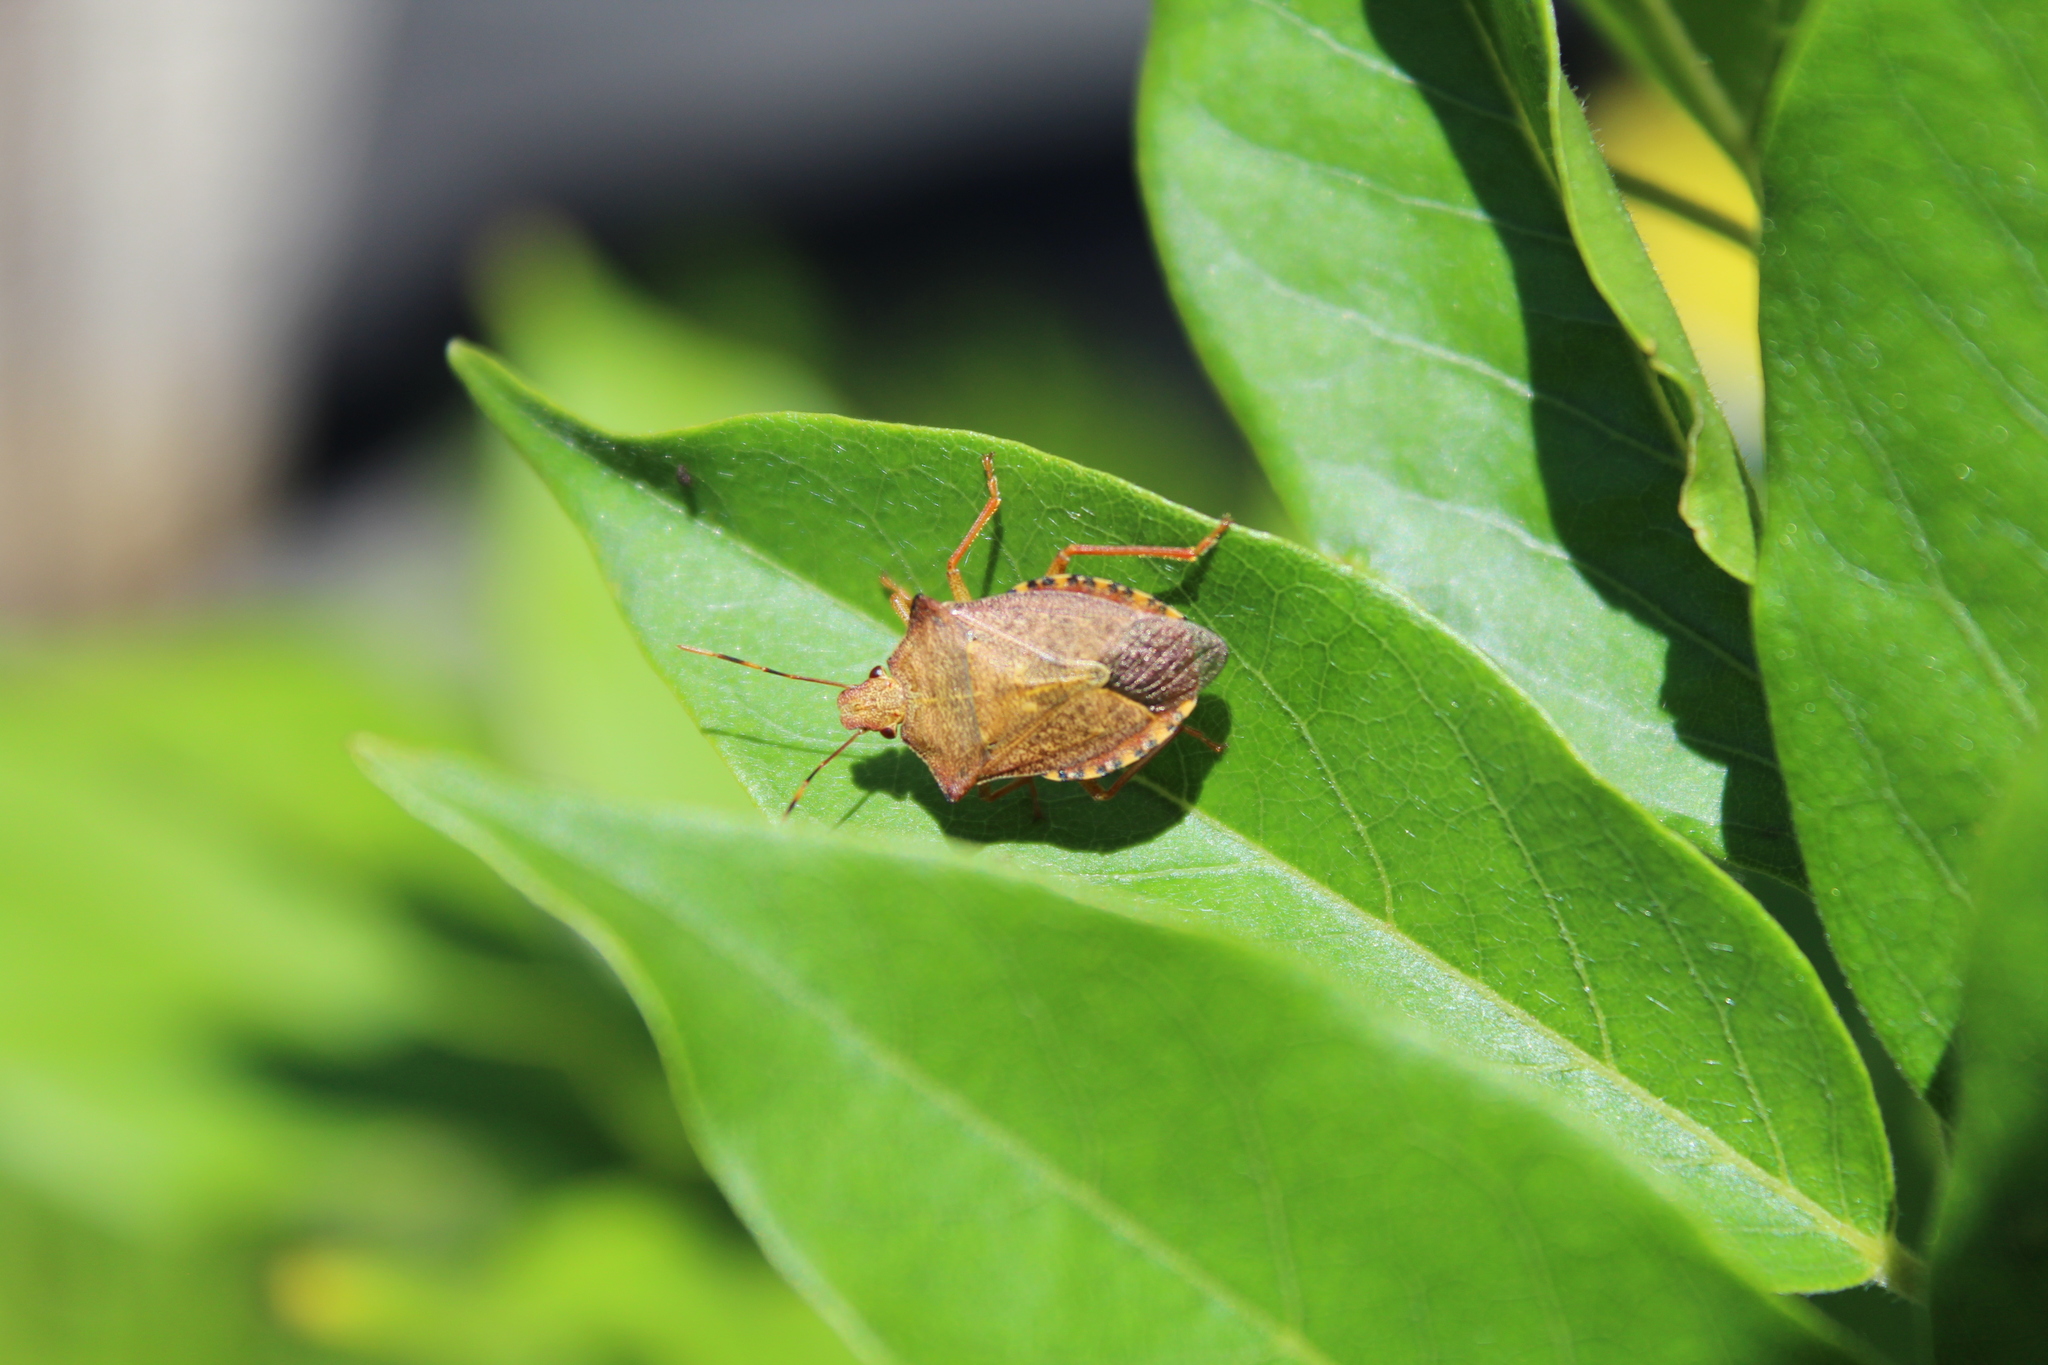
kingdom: Animalia
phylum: Arthropoda
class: Insecta
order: Hemiptera
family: Pentatomidae
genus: Arma
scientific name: Arma custos
